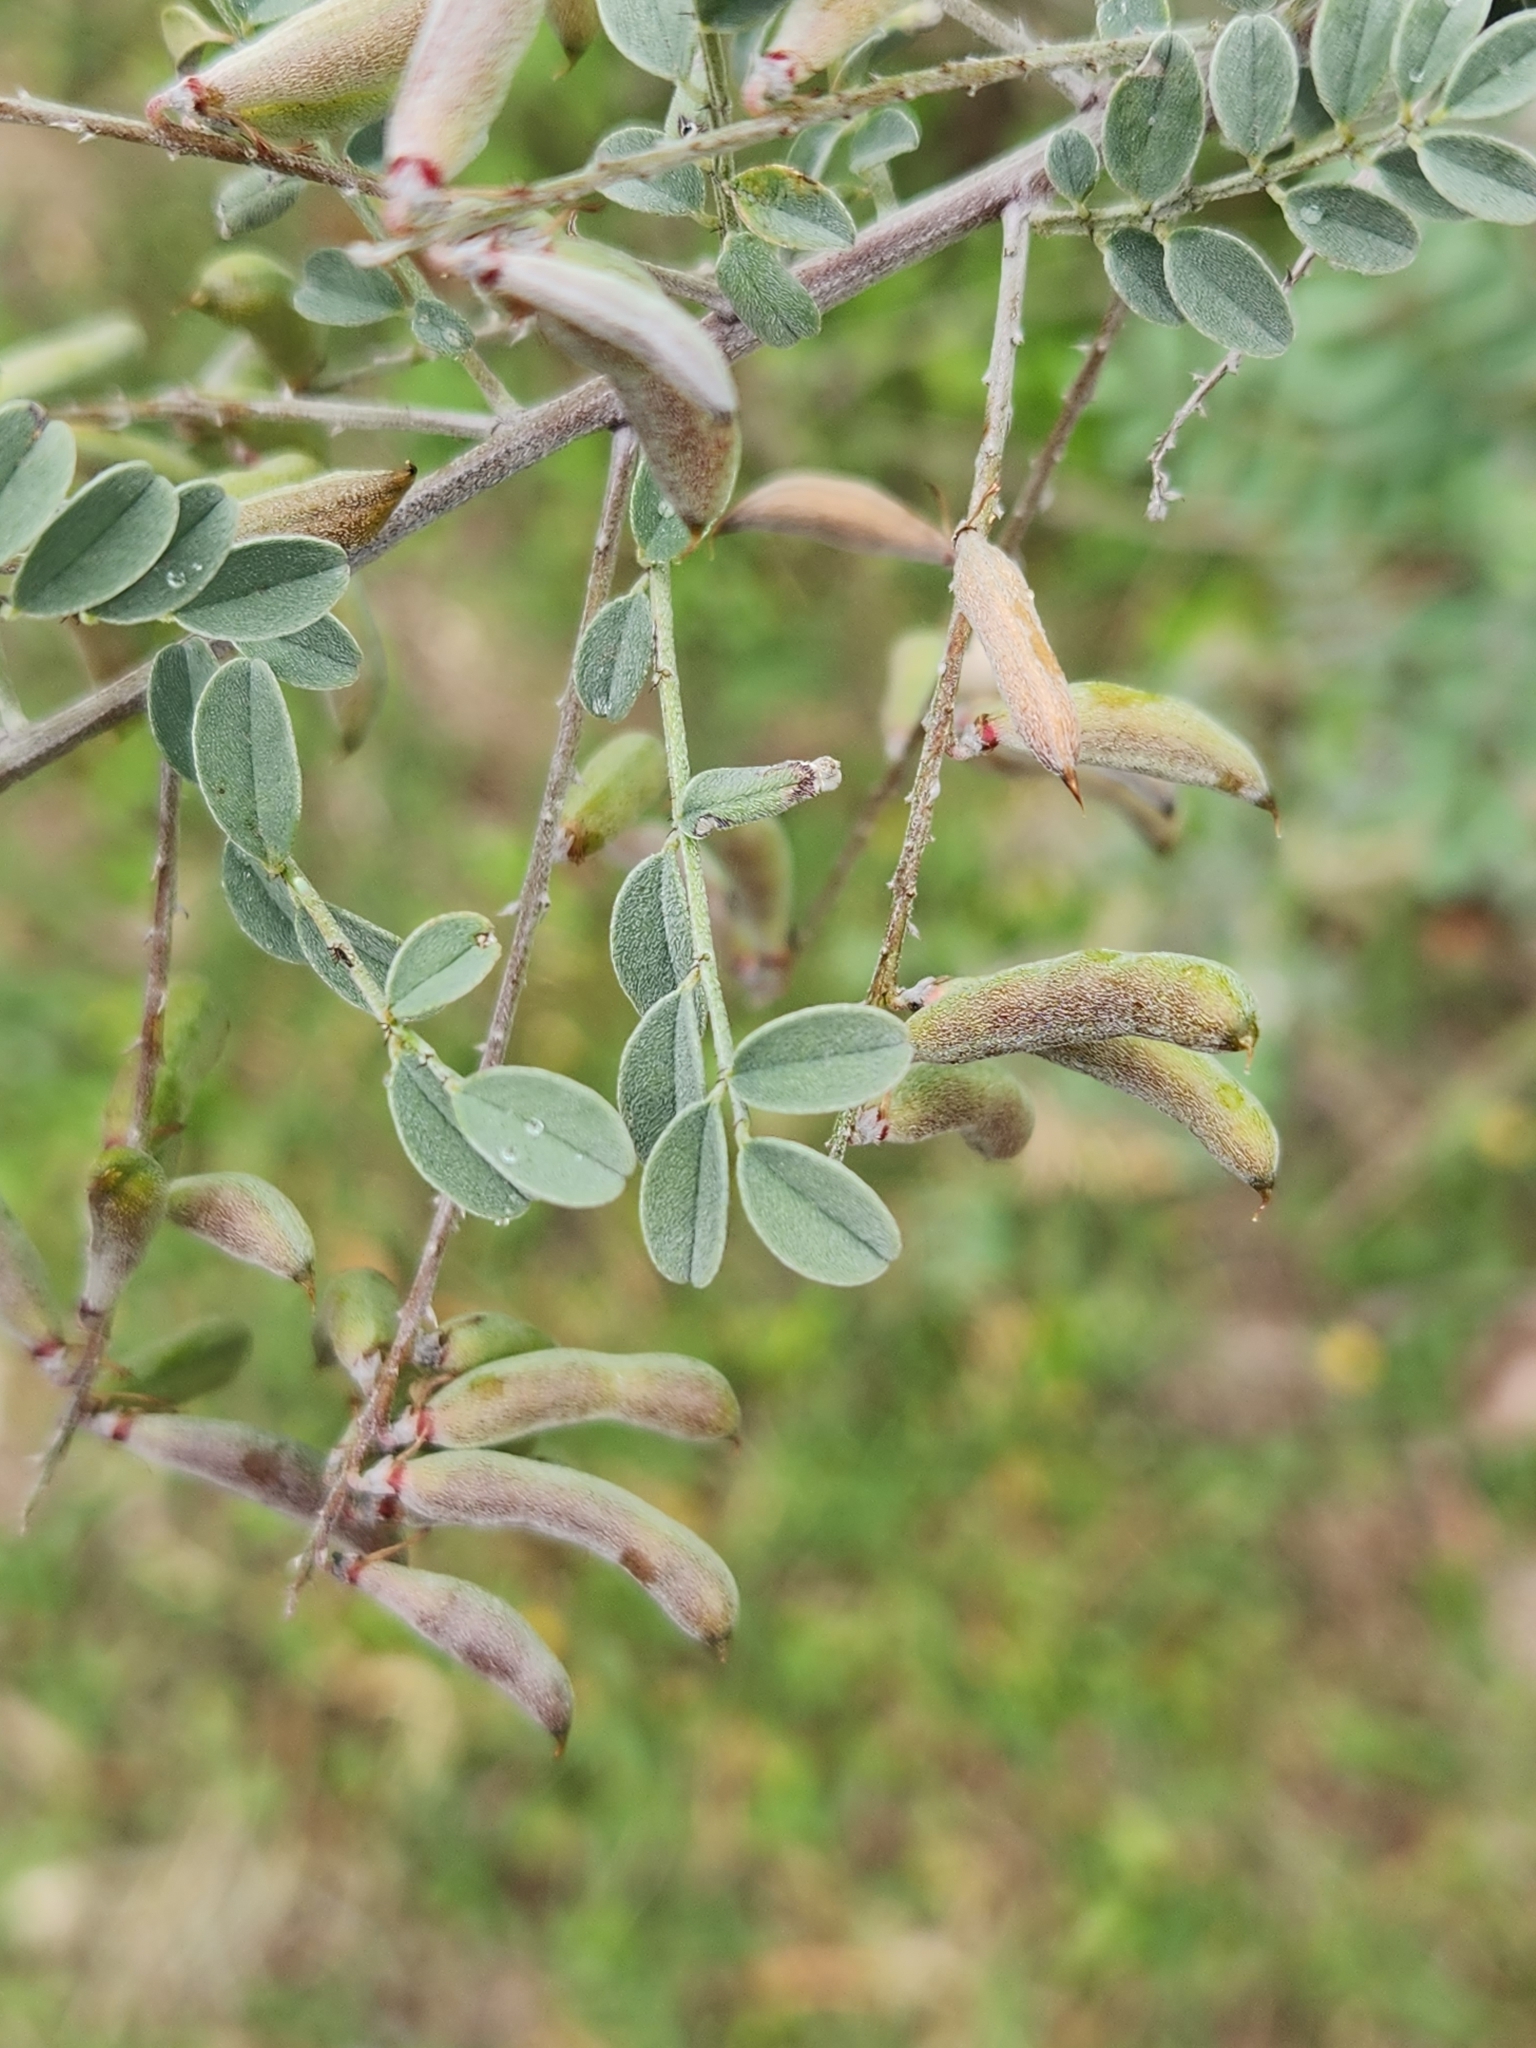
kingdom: Plantae
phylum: Tracheophyta
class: Magnoliopsida
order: Fabales
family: Fabaceae
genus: Indigofera
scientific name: Indigofera lindheimeriana
